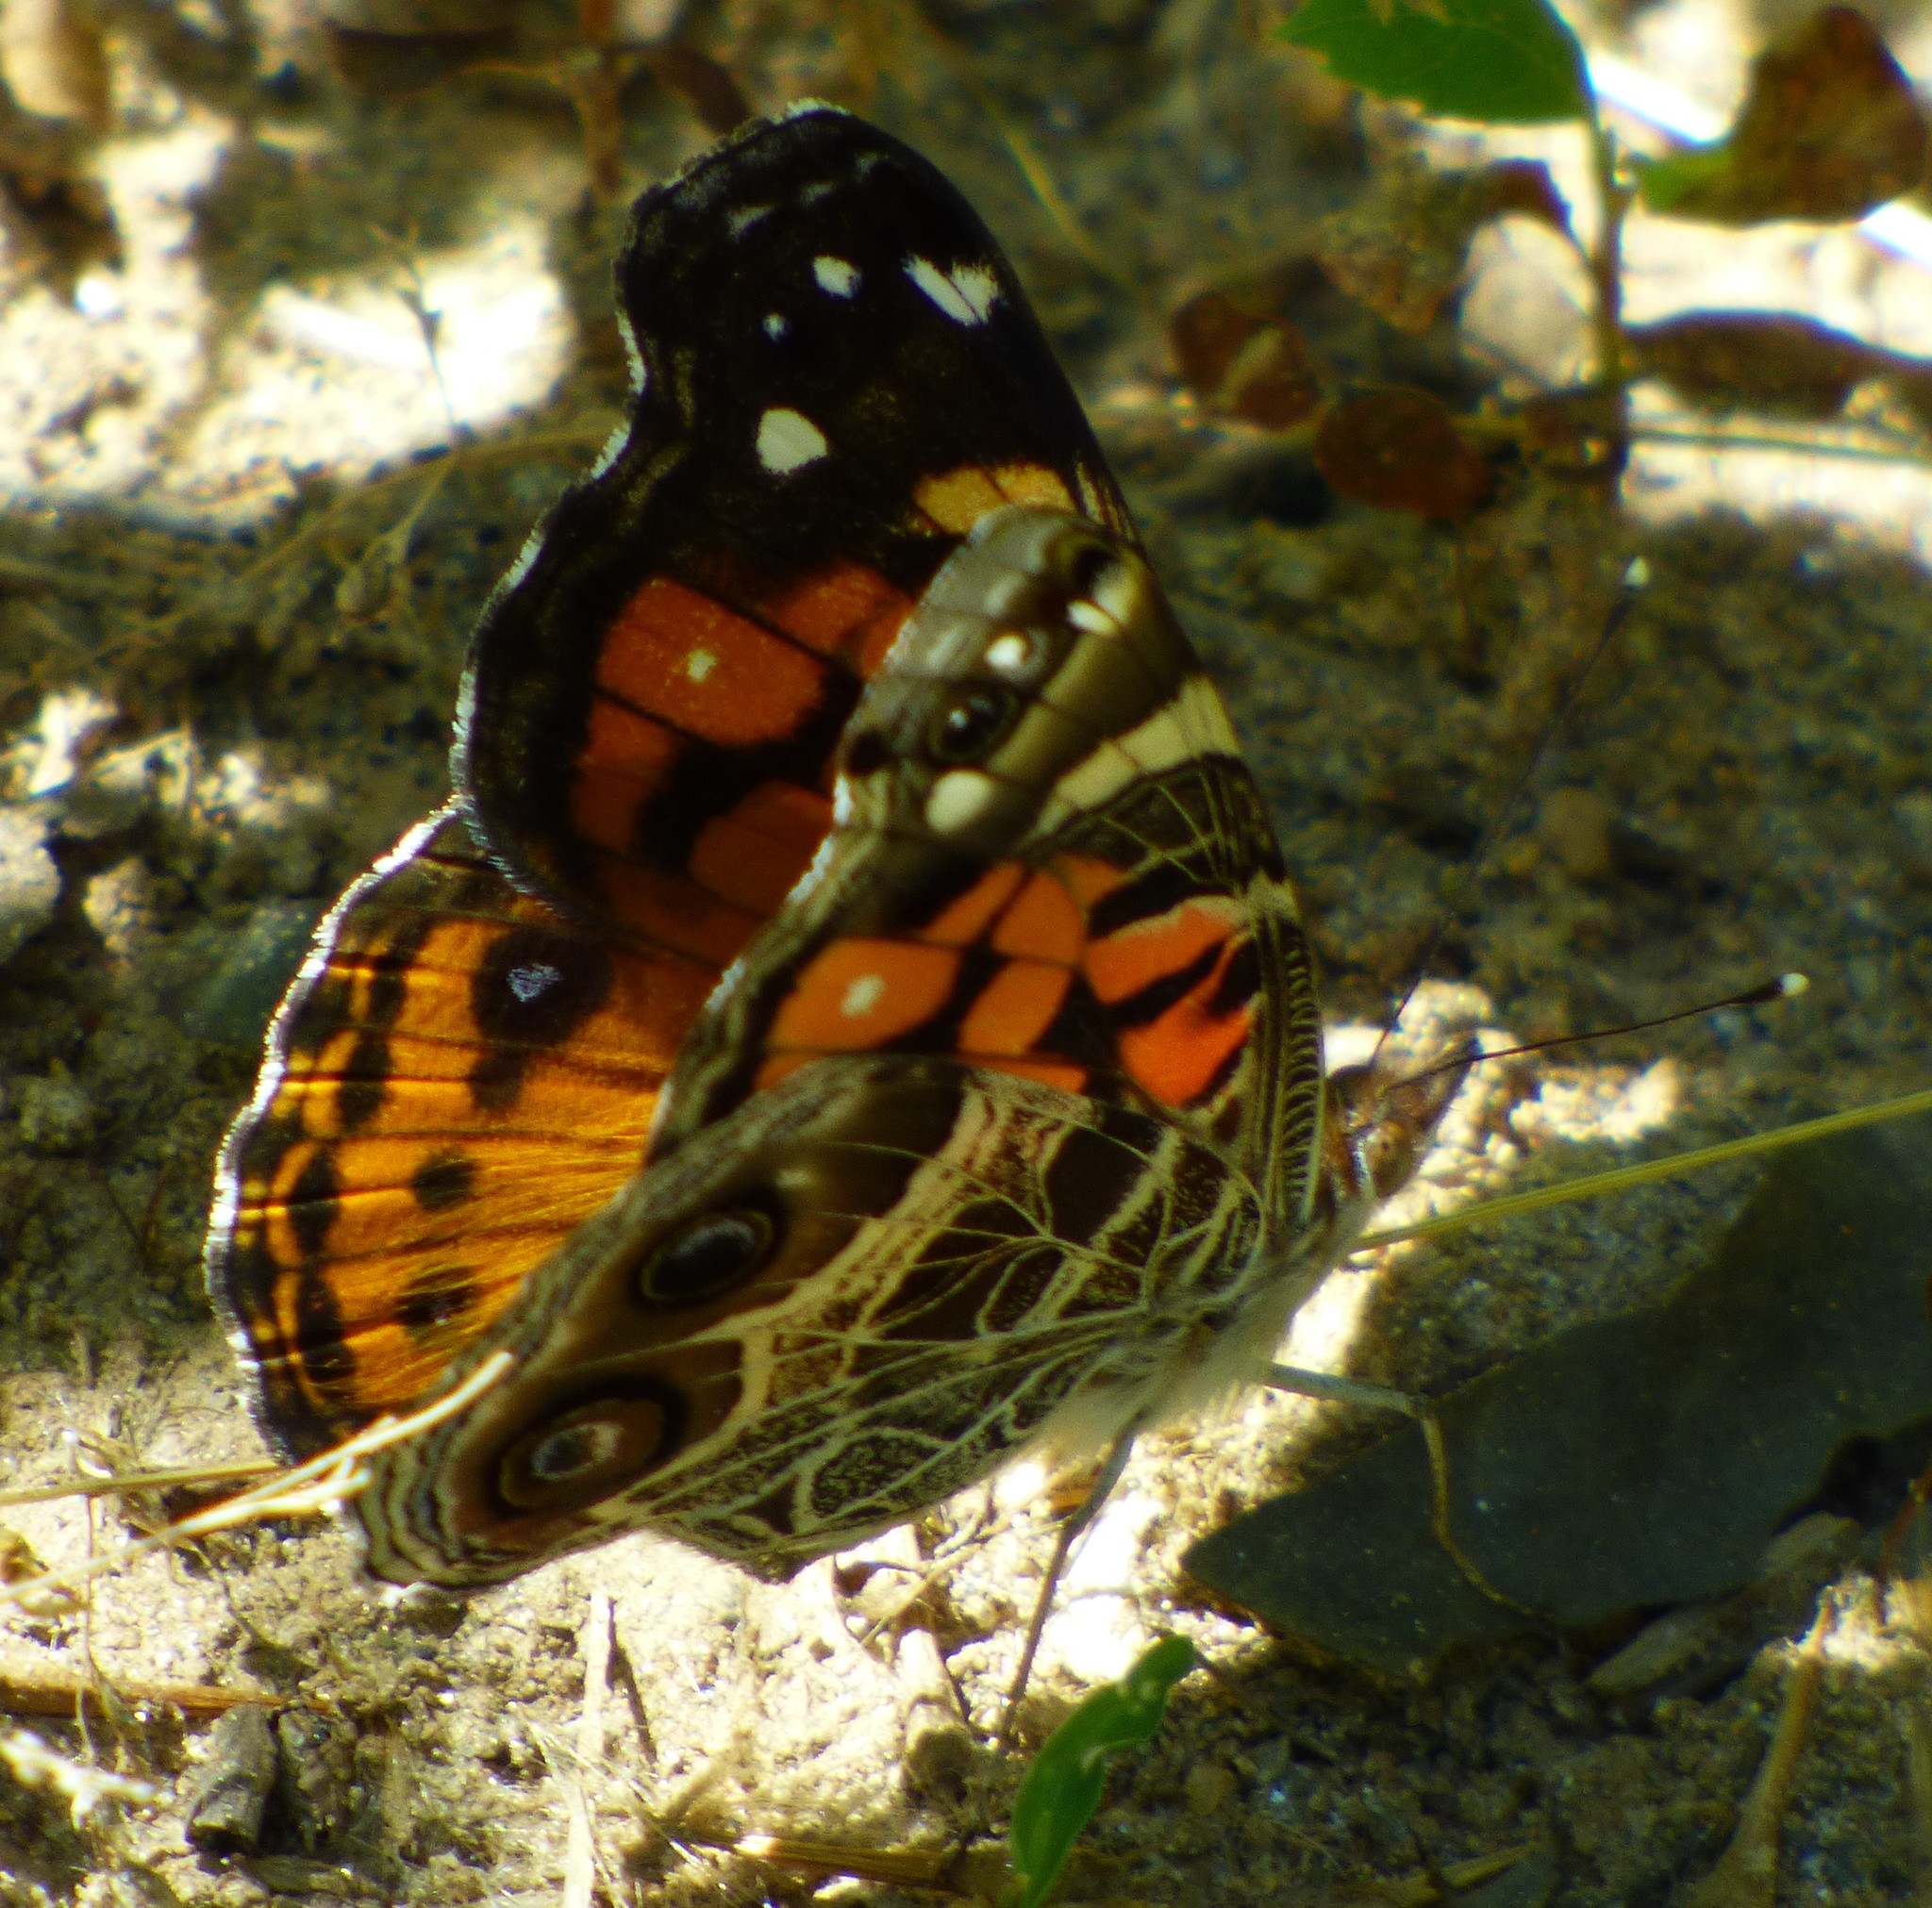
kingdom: Animalia
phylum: Arthropoda
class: Insecta
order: Lepidoptera
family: Nymphalidae
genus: Vanessa
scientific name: Vanessa virginiensis
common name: American lady
